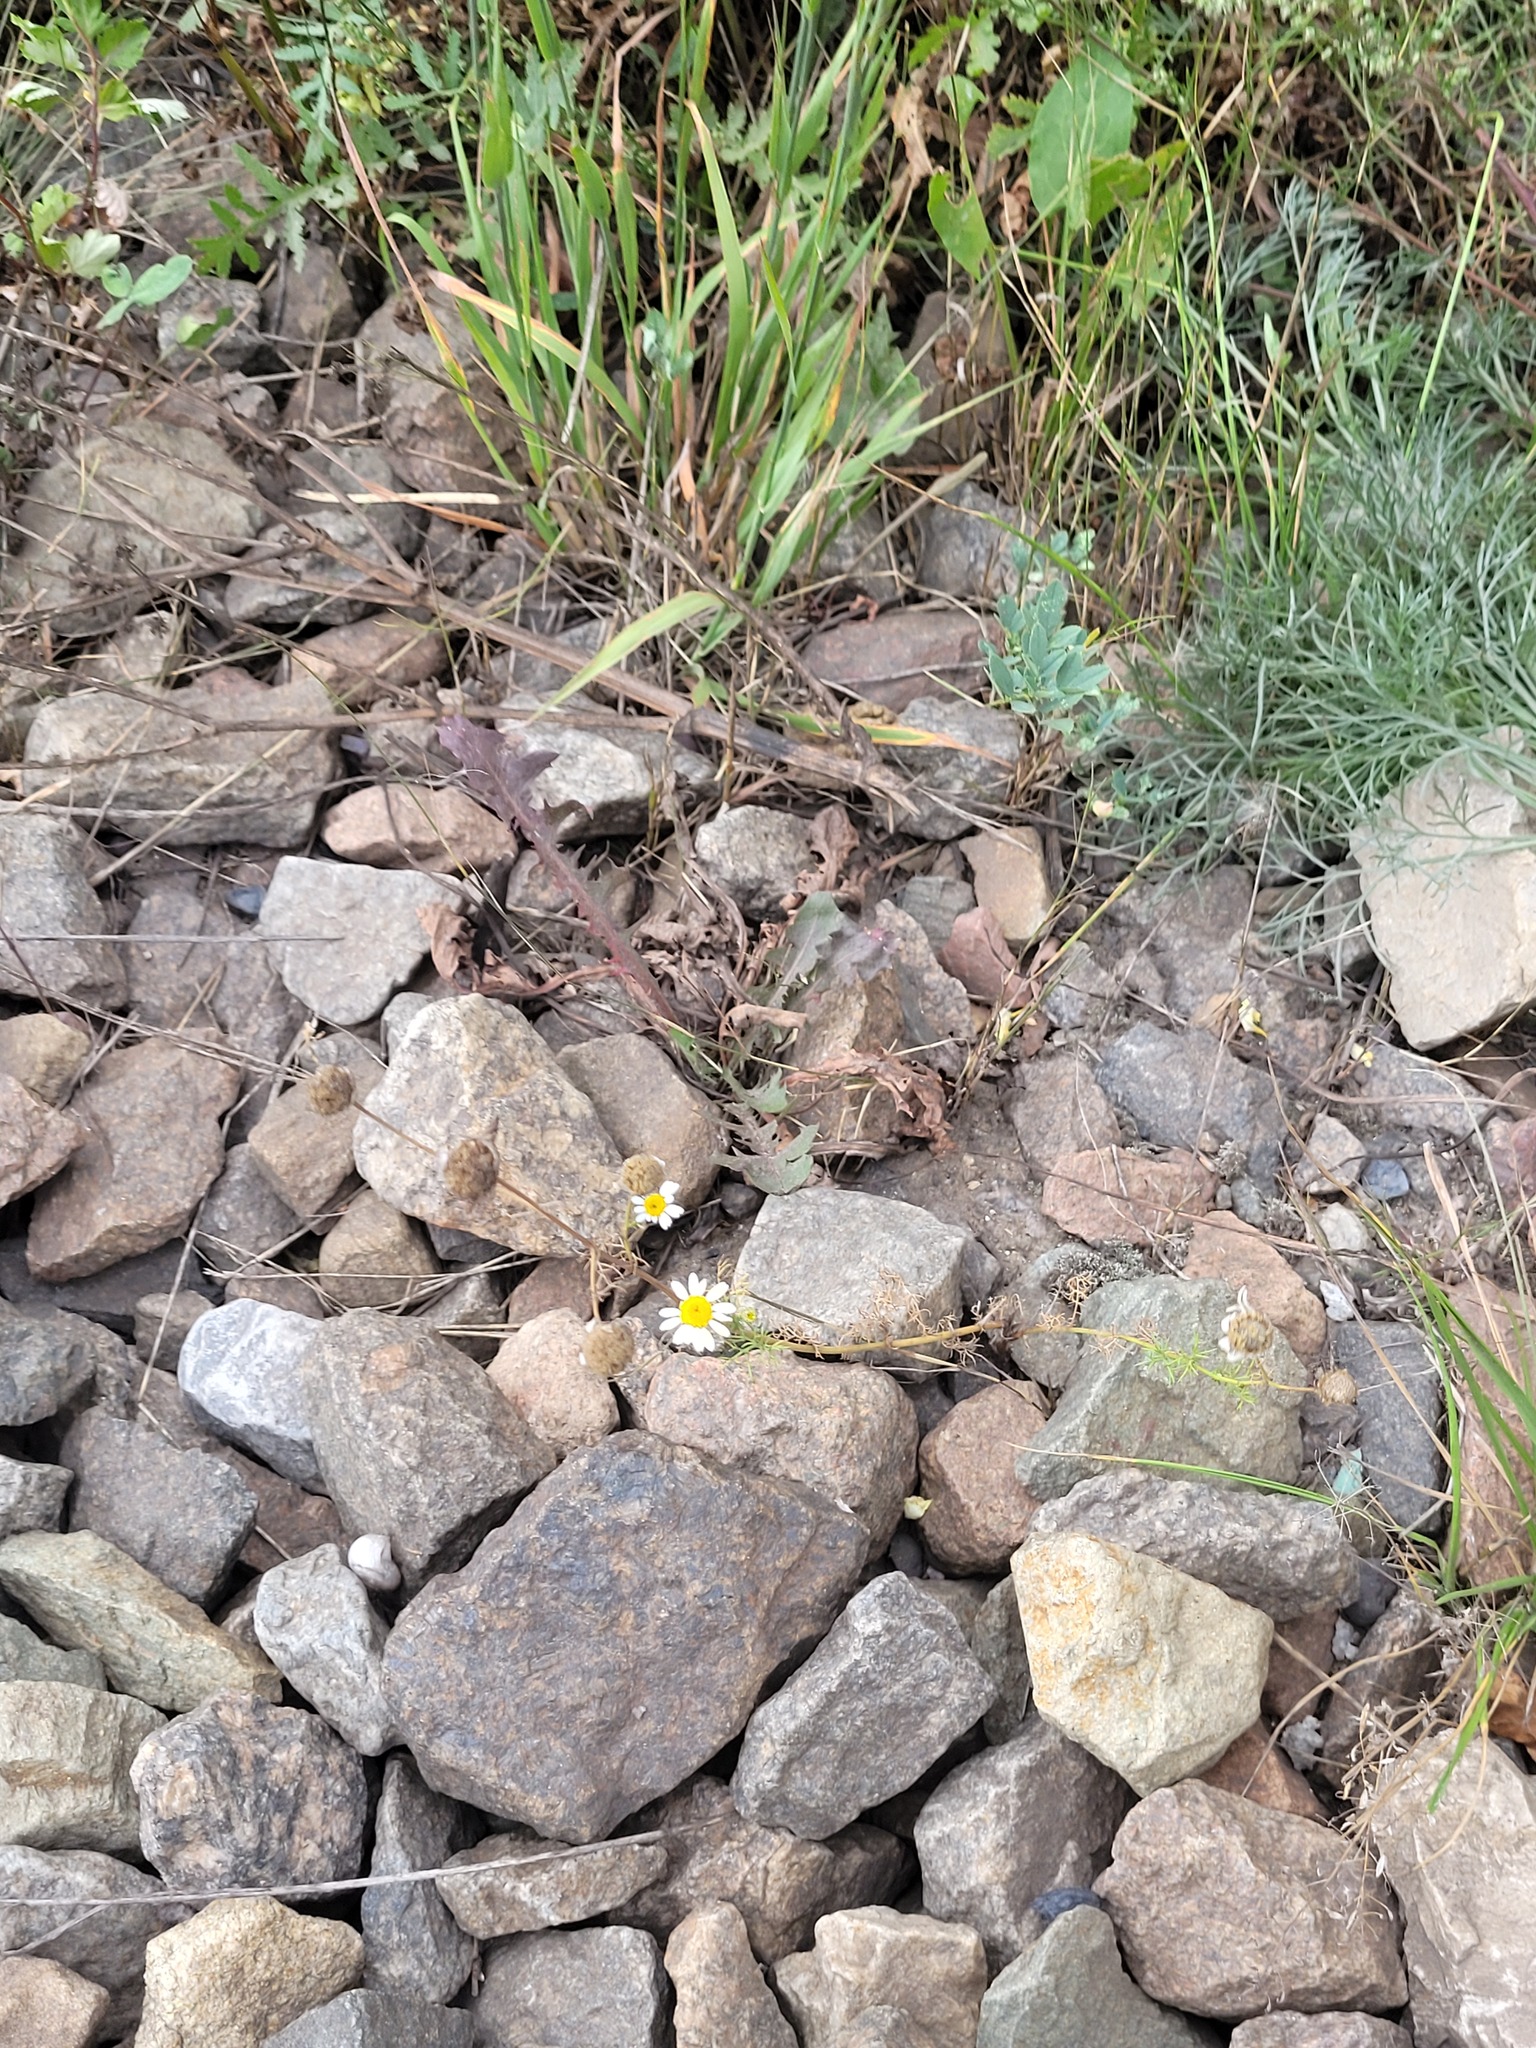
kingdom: Plantae
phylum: Tracheophyta
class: Magnoliopsida
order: Asterales
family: Asteraceae
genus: Tripleurospermum
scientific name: Tripleurospermum inodorum
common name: Scentless mayweed
